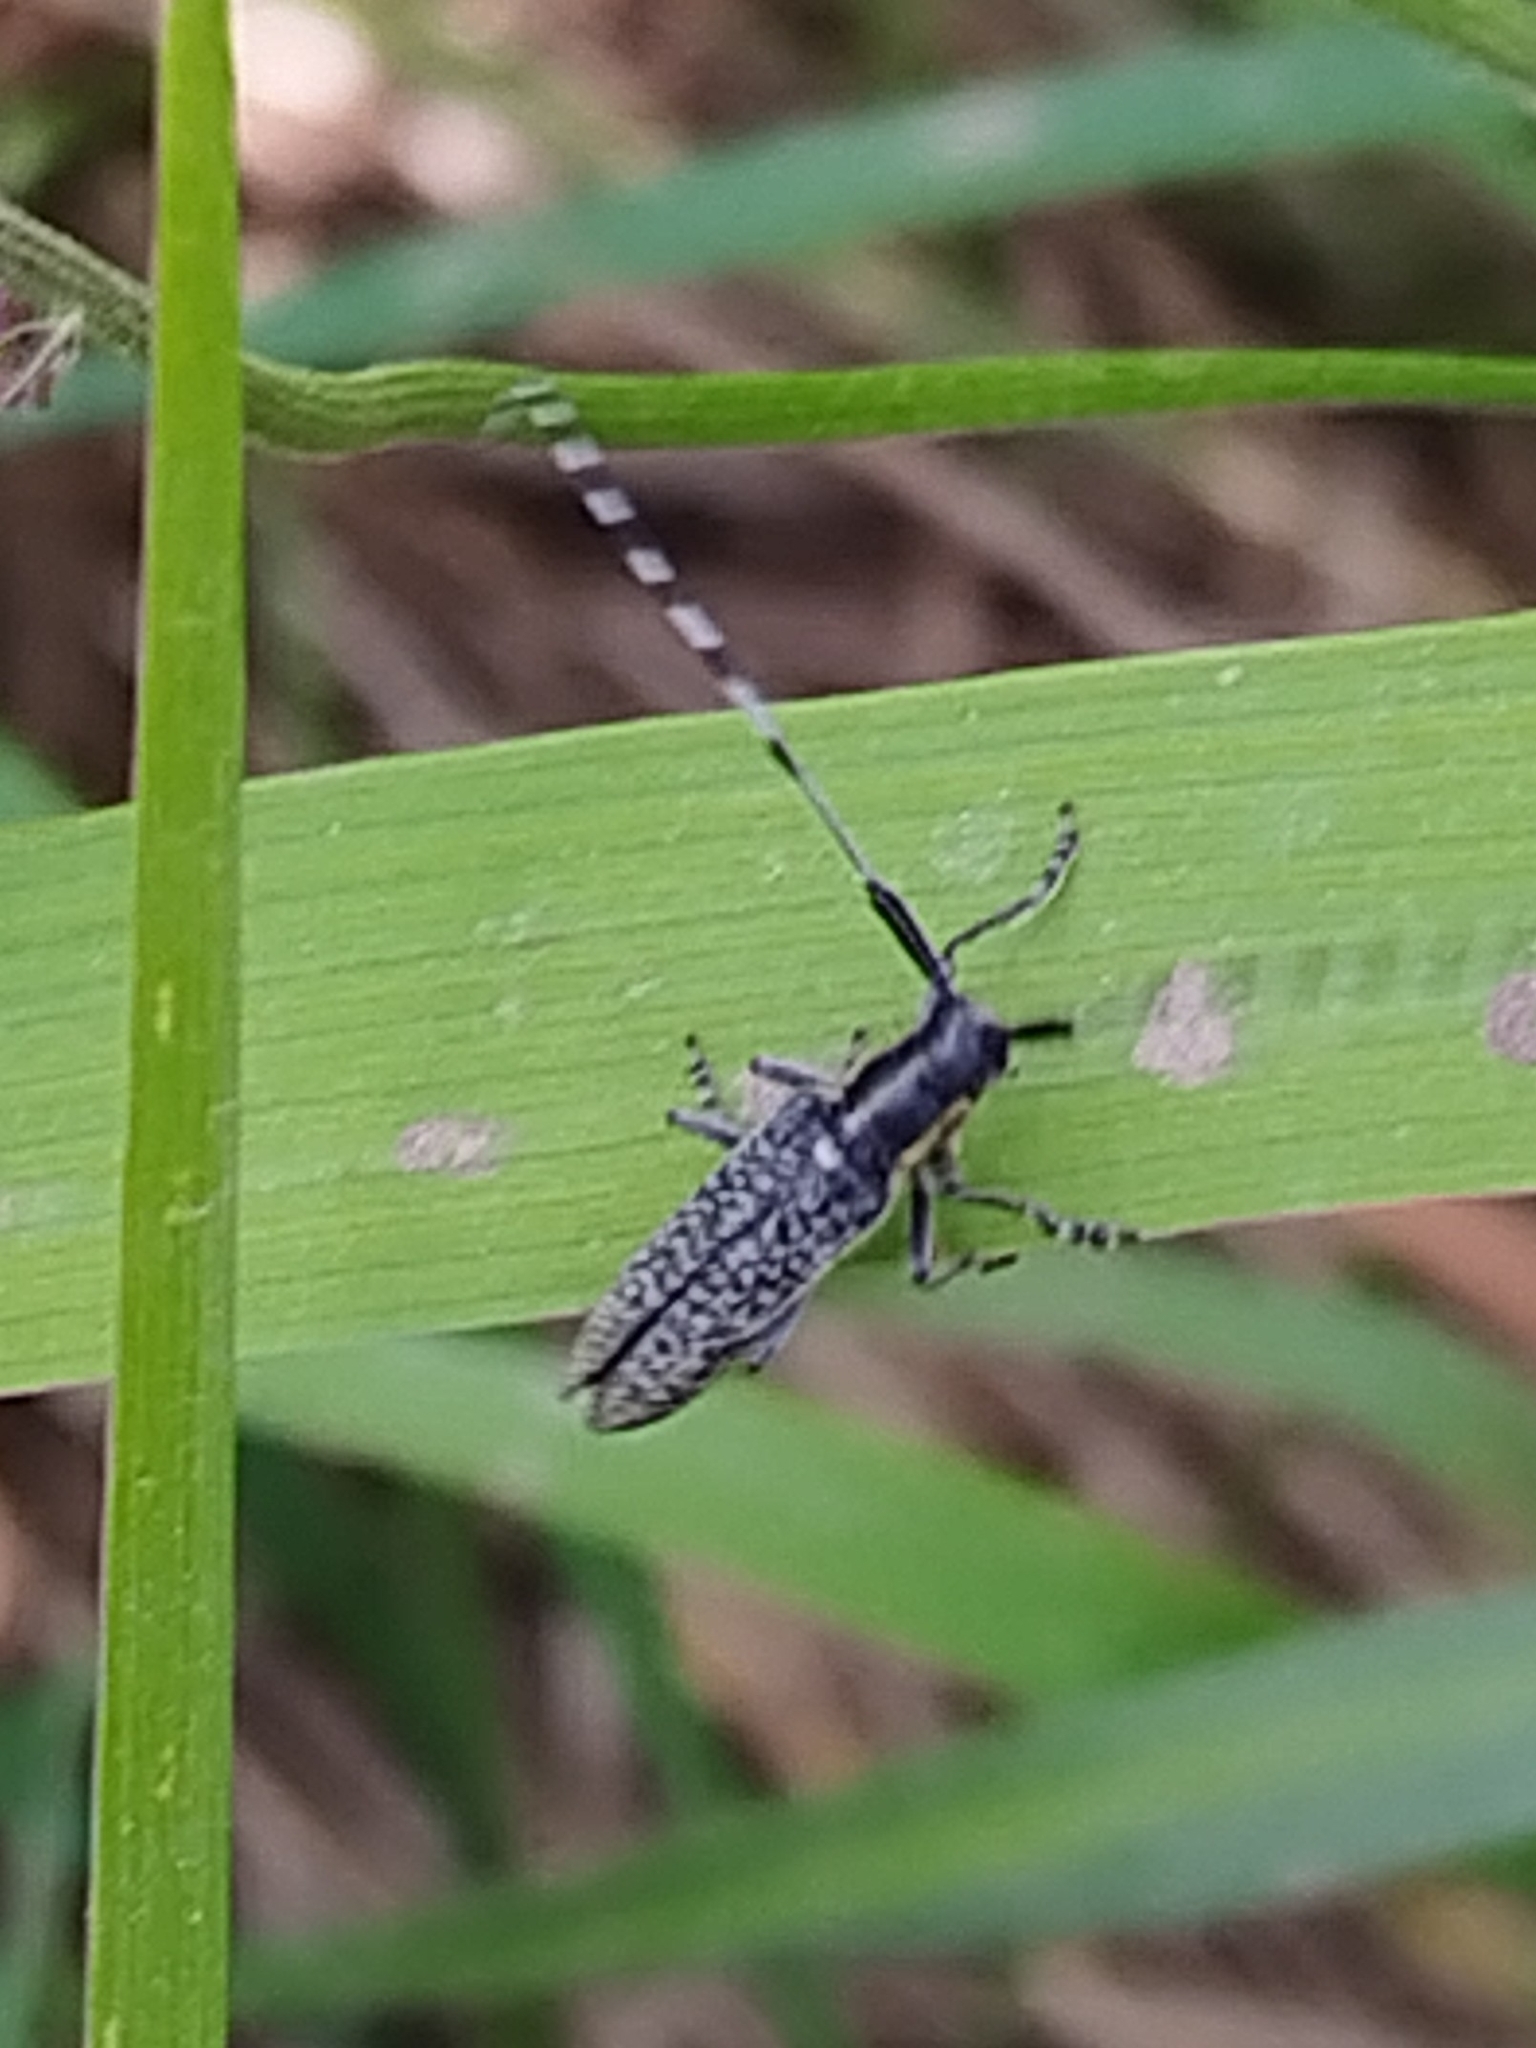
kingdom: Animalia
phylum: Arthropoda
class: Insecta
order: Coleoptera
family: Cerambycidae
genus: Agapanthia
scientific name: Agapanthia villosoviridescens
